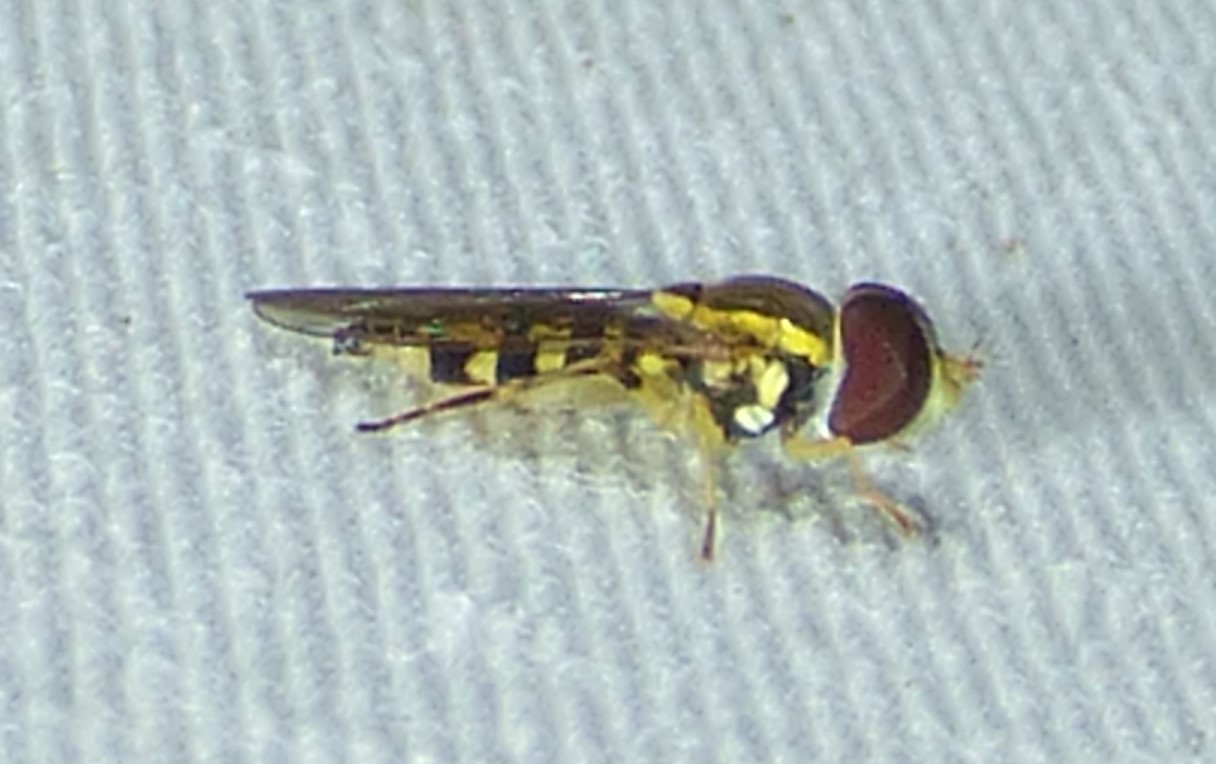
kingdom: Animalia
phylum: Arthropoda
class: Insecta
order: Diptera
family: Syrphidae
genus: Toxomerus
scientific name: Toxomerus geminatus
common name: Eastern calligrapher
